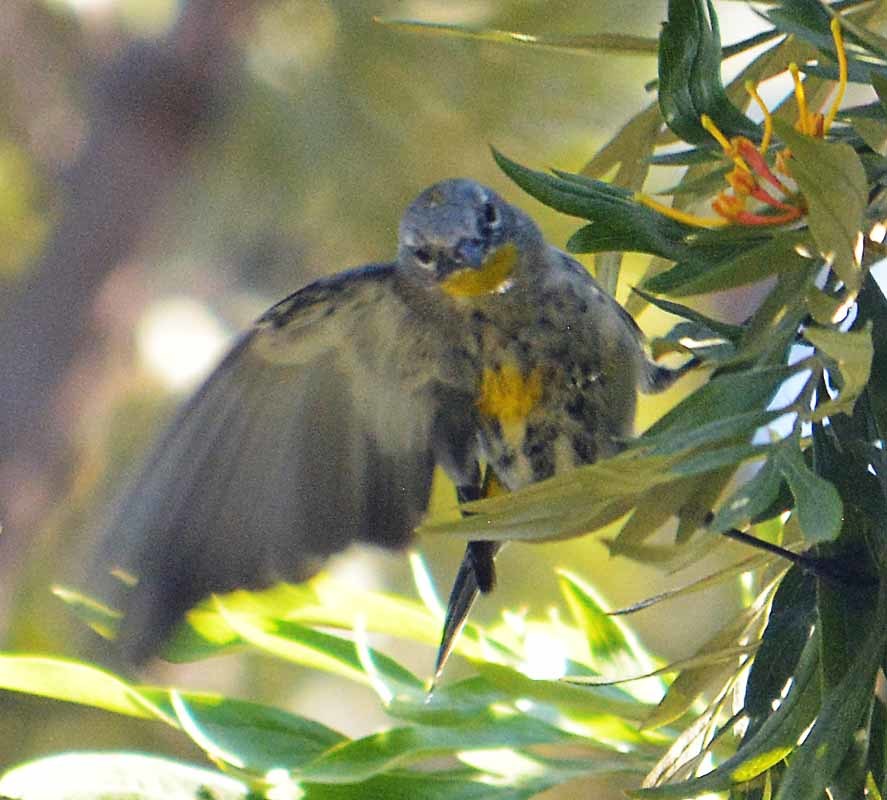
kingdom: Animalia
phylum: Chordata
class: Aves
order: Passeriformes
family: Parulidae
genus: Setophaga
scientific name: Setophaga coronata
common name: Myrtle warbler
